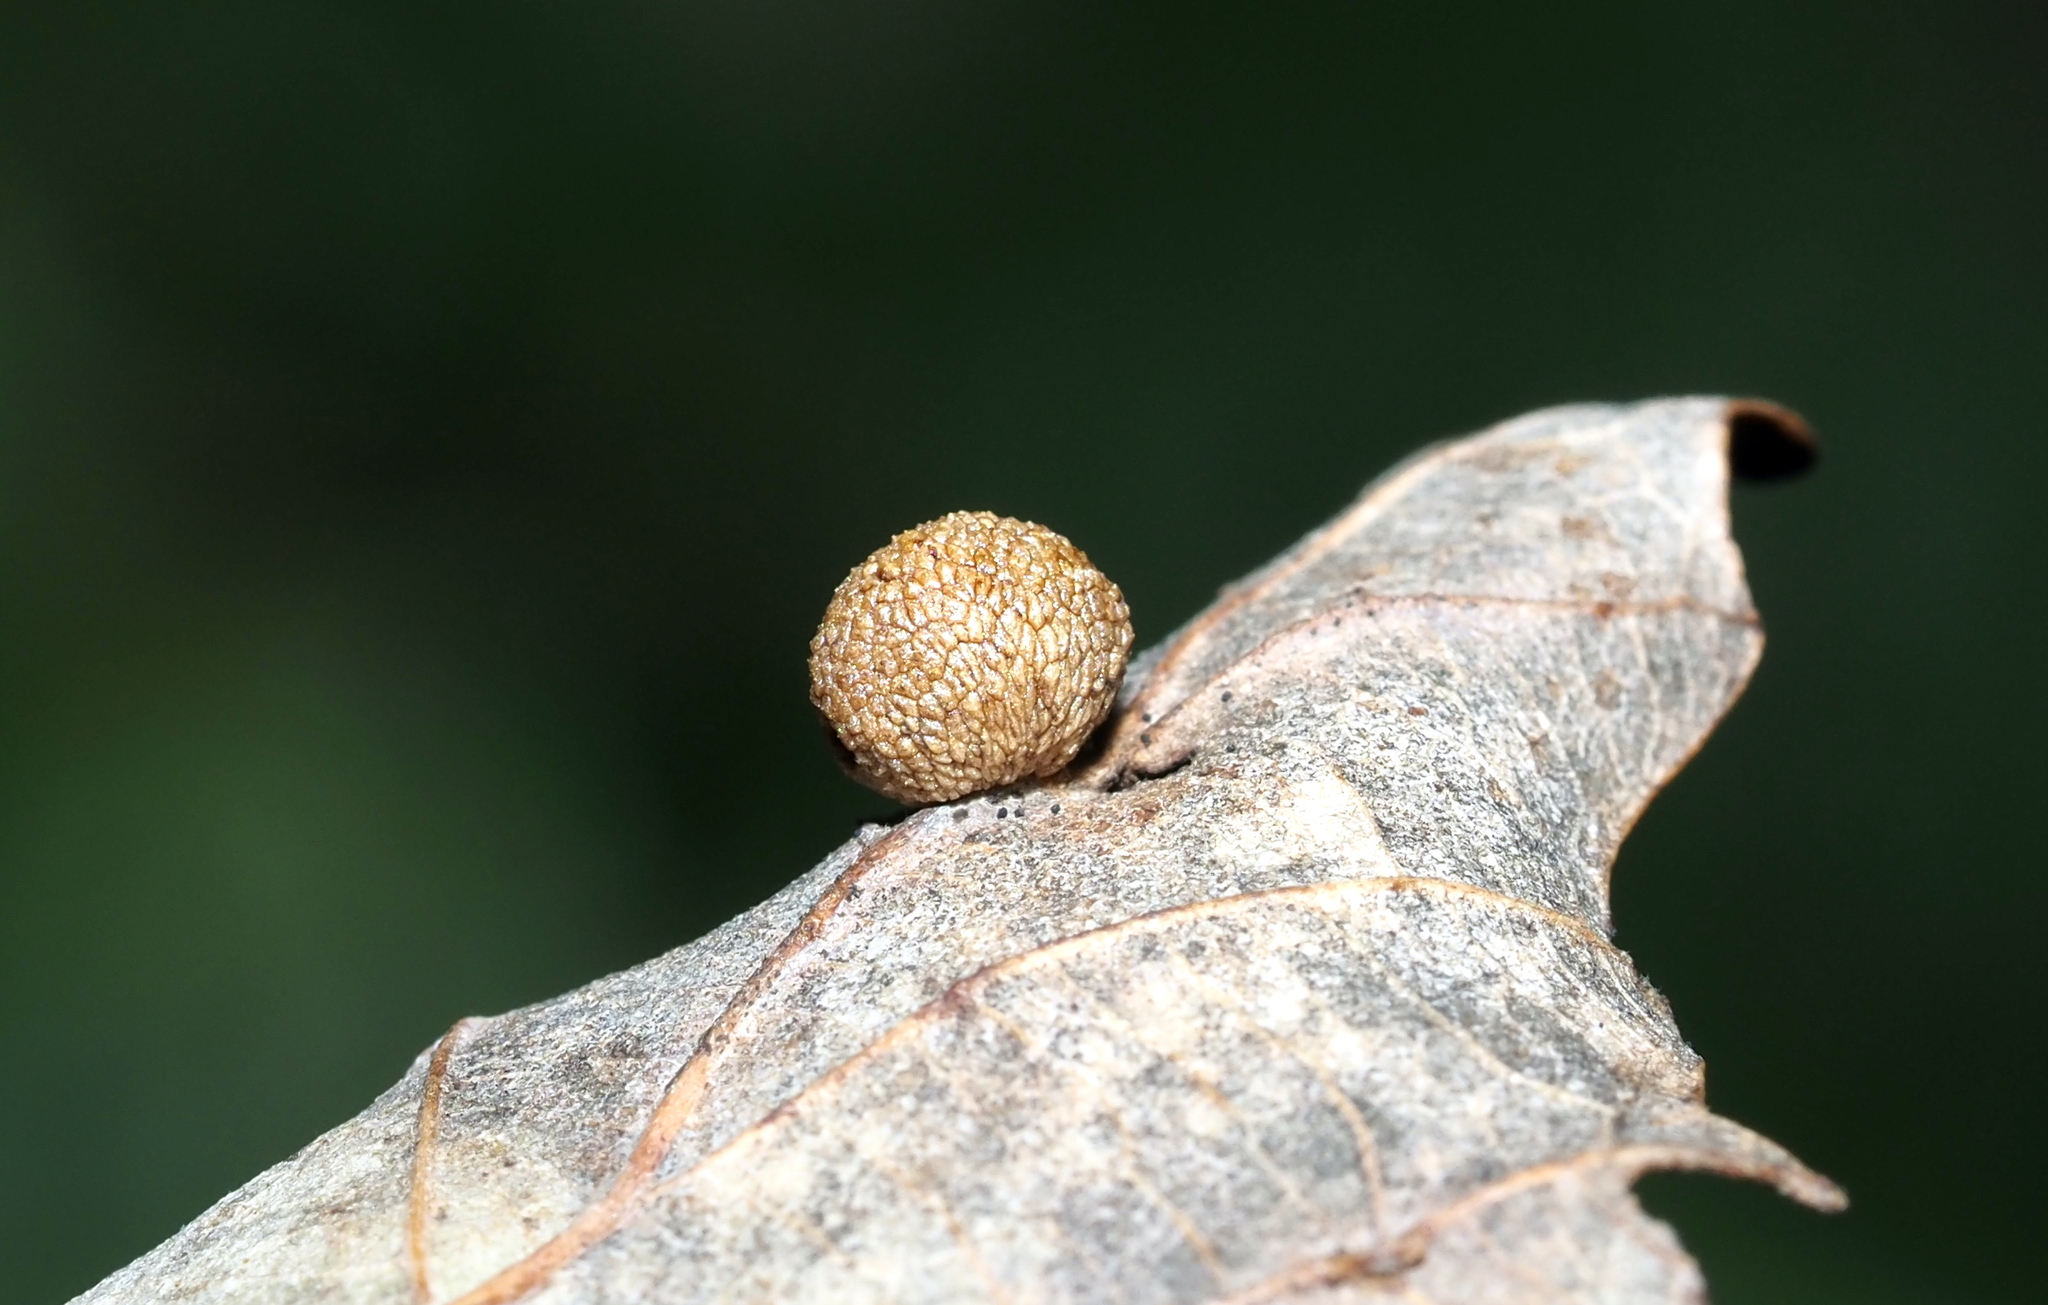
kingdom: Animalia
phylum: Arthropoda
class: Insecta
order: Hymenoptera
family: Cynipidae
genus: Acraspis
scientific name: Acraspis quercushirta
